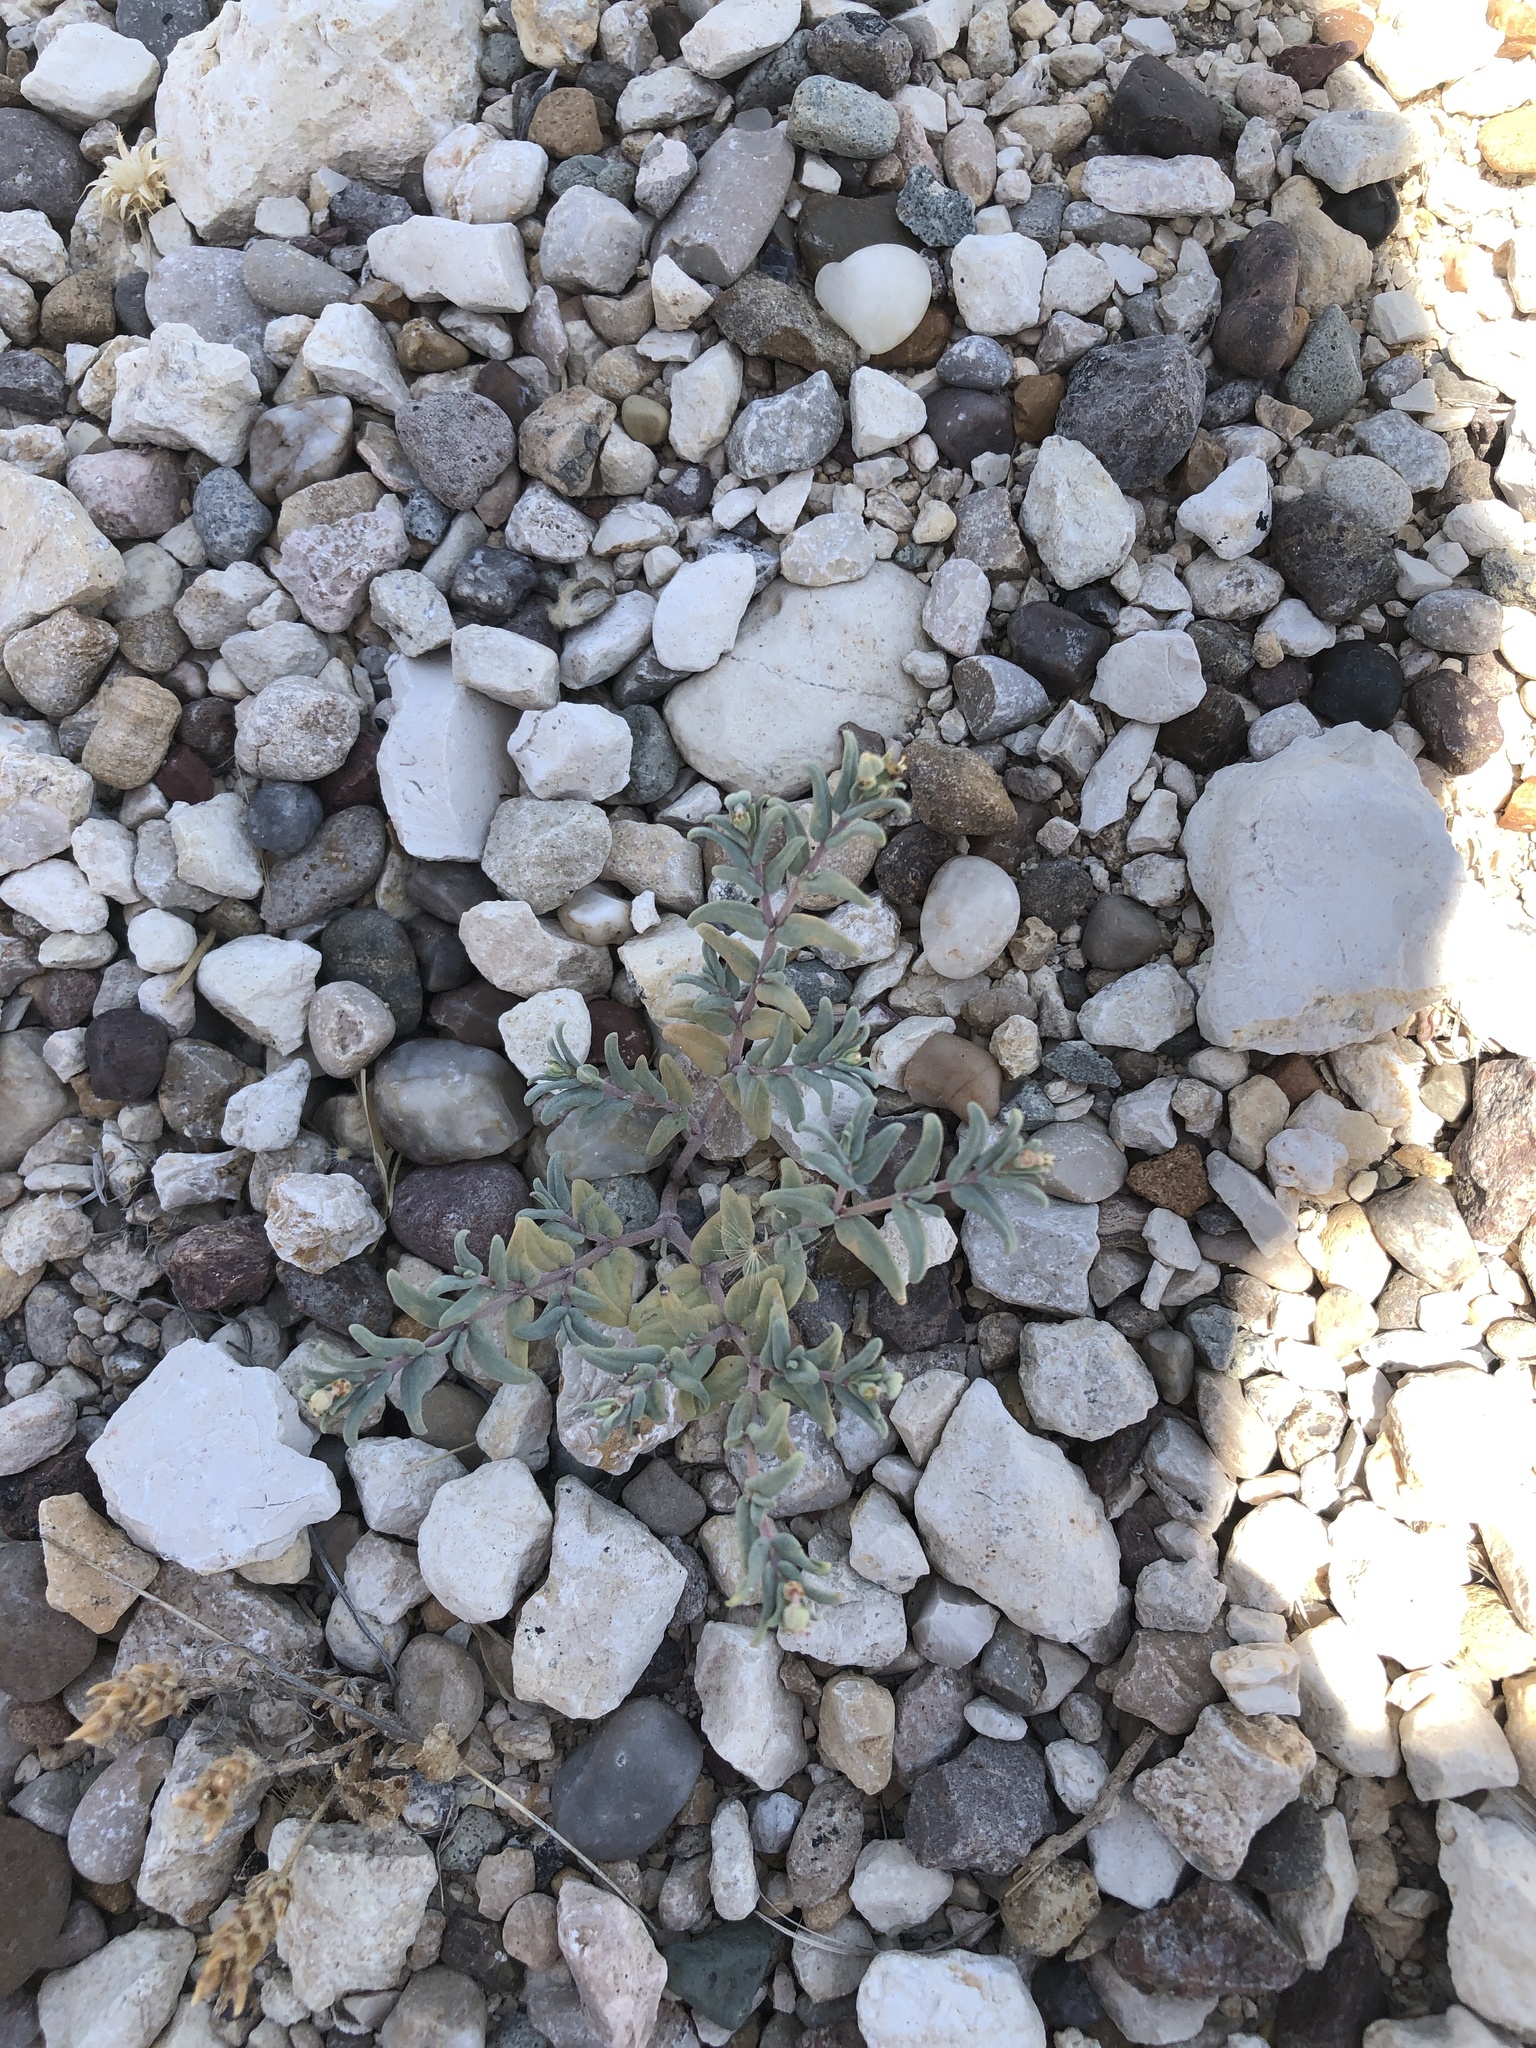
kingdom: Plantae
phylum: Tracheophyta
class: Magnoliopsida
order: Malpighiales
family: Euphorbiaceae
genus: Euphorbia
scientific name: Euphorbia lata
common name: Hoary euphorbia
